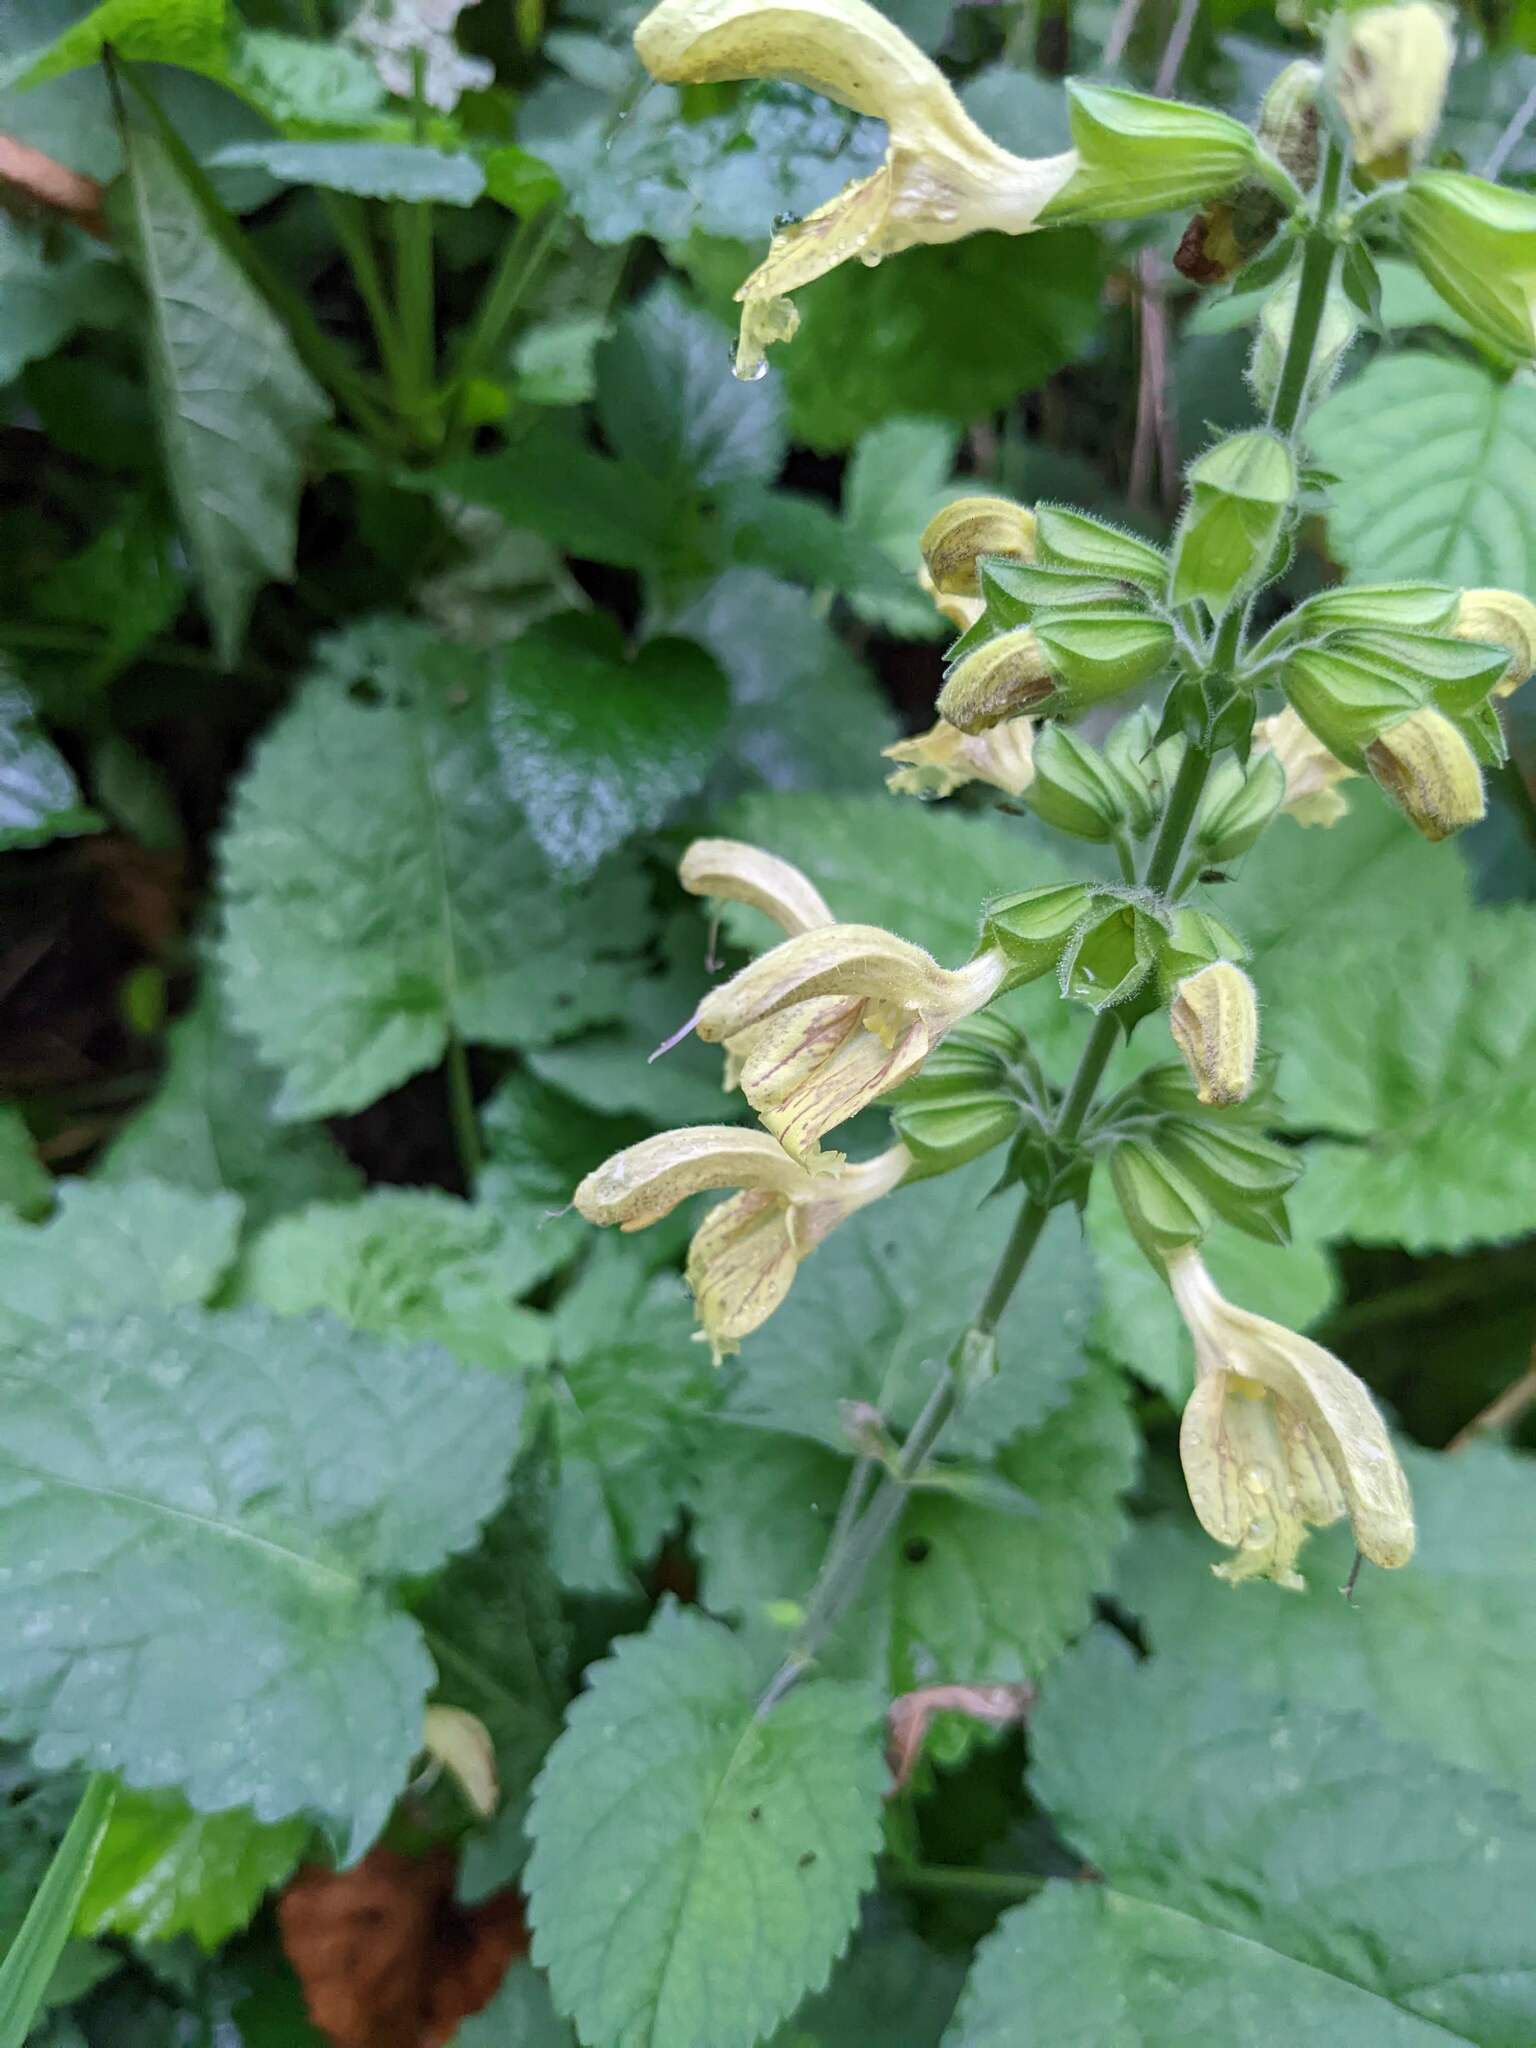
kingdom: Plantae
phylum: Tracheophyta
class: Magnoliopsida
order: Lamiales
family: Lamiaceae
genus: Salvia
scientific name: Salvia glutinosa
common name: Sticky clary
